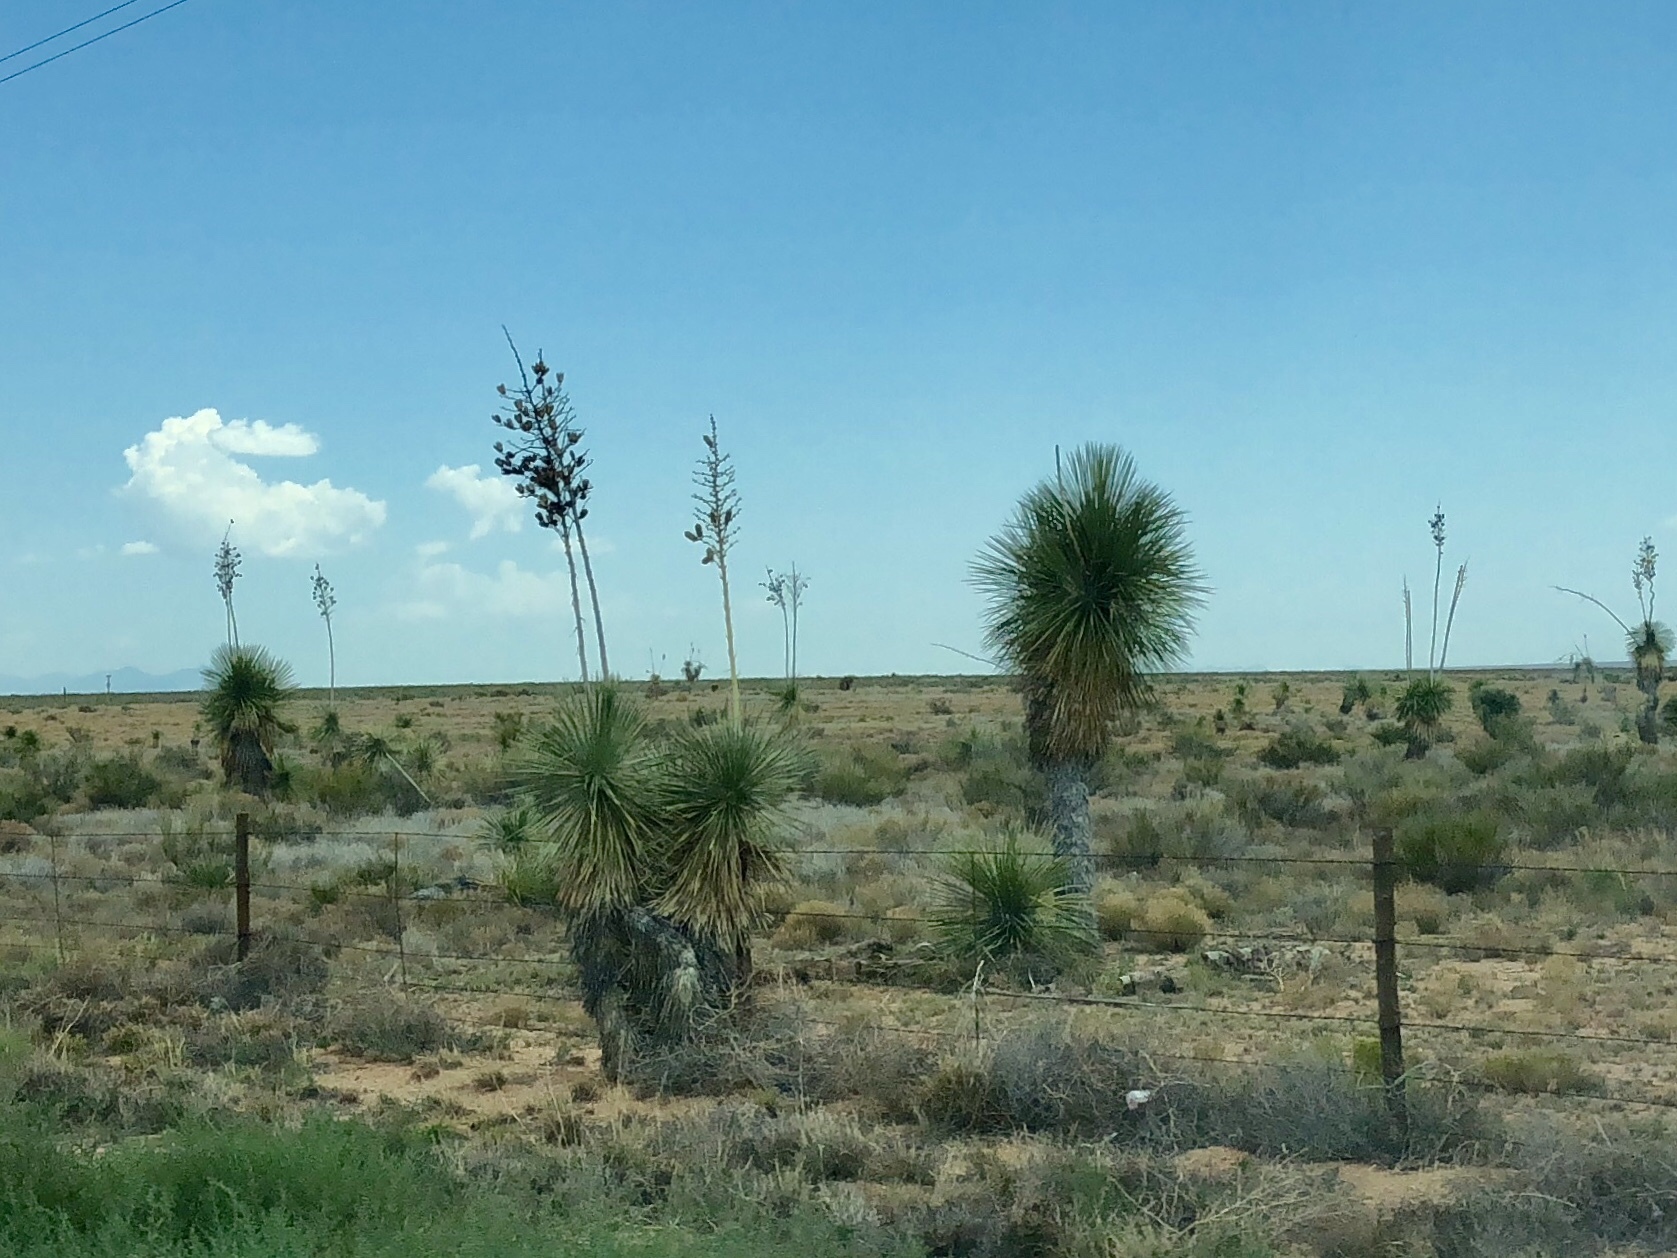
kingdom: Plantae
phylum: Tracheophyta
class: Liliopsida
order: Asparagales
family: Asparagaceae
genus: Yucca
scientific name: Yucca elata
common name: Palmella
